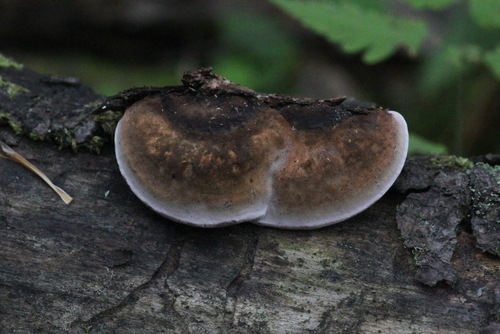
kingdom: Fungi
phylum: Basidiomycota
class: Agaricomycetes
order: Polyporales
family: Fomitopsidaceae
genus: Rhodofomes
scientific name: Rhodofomes roseus
